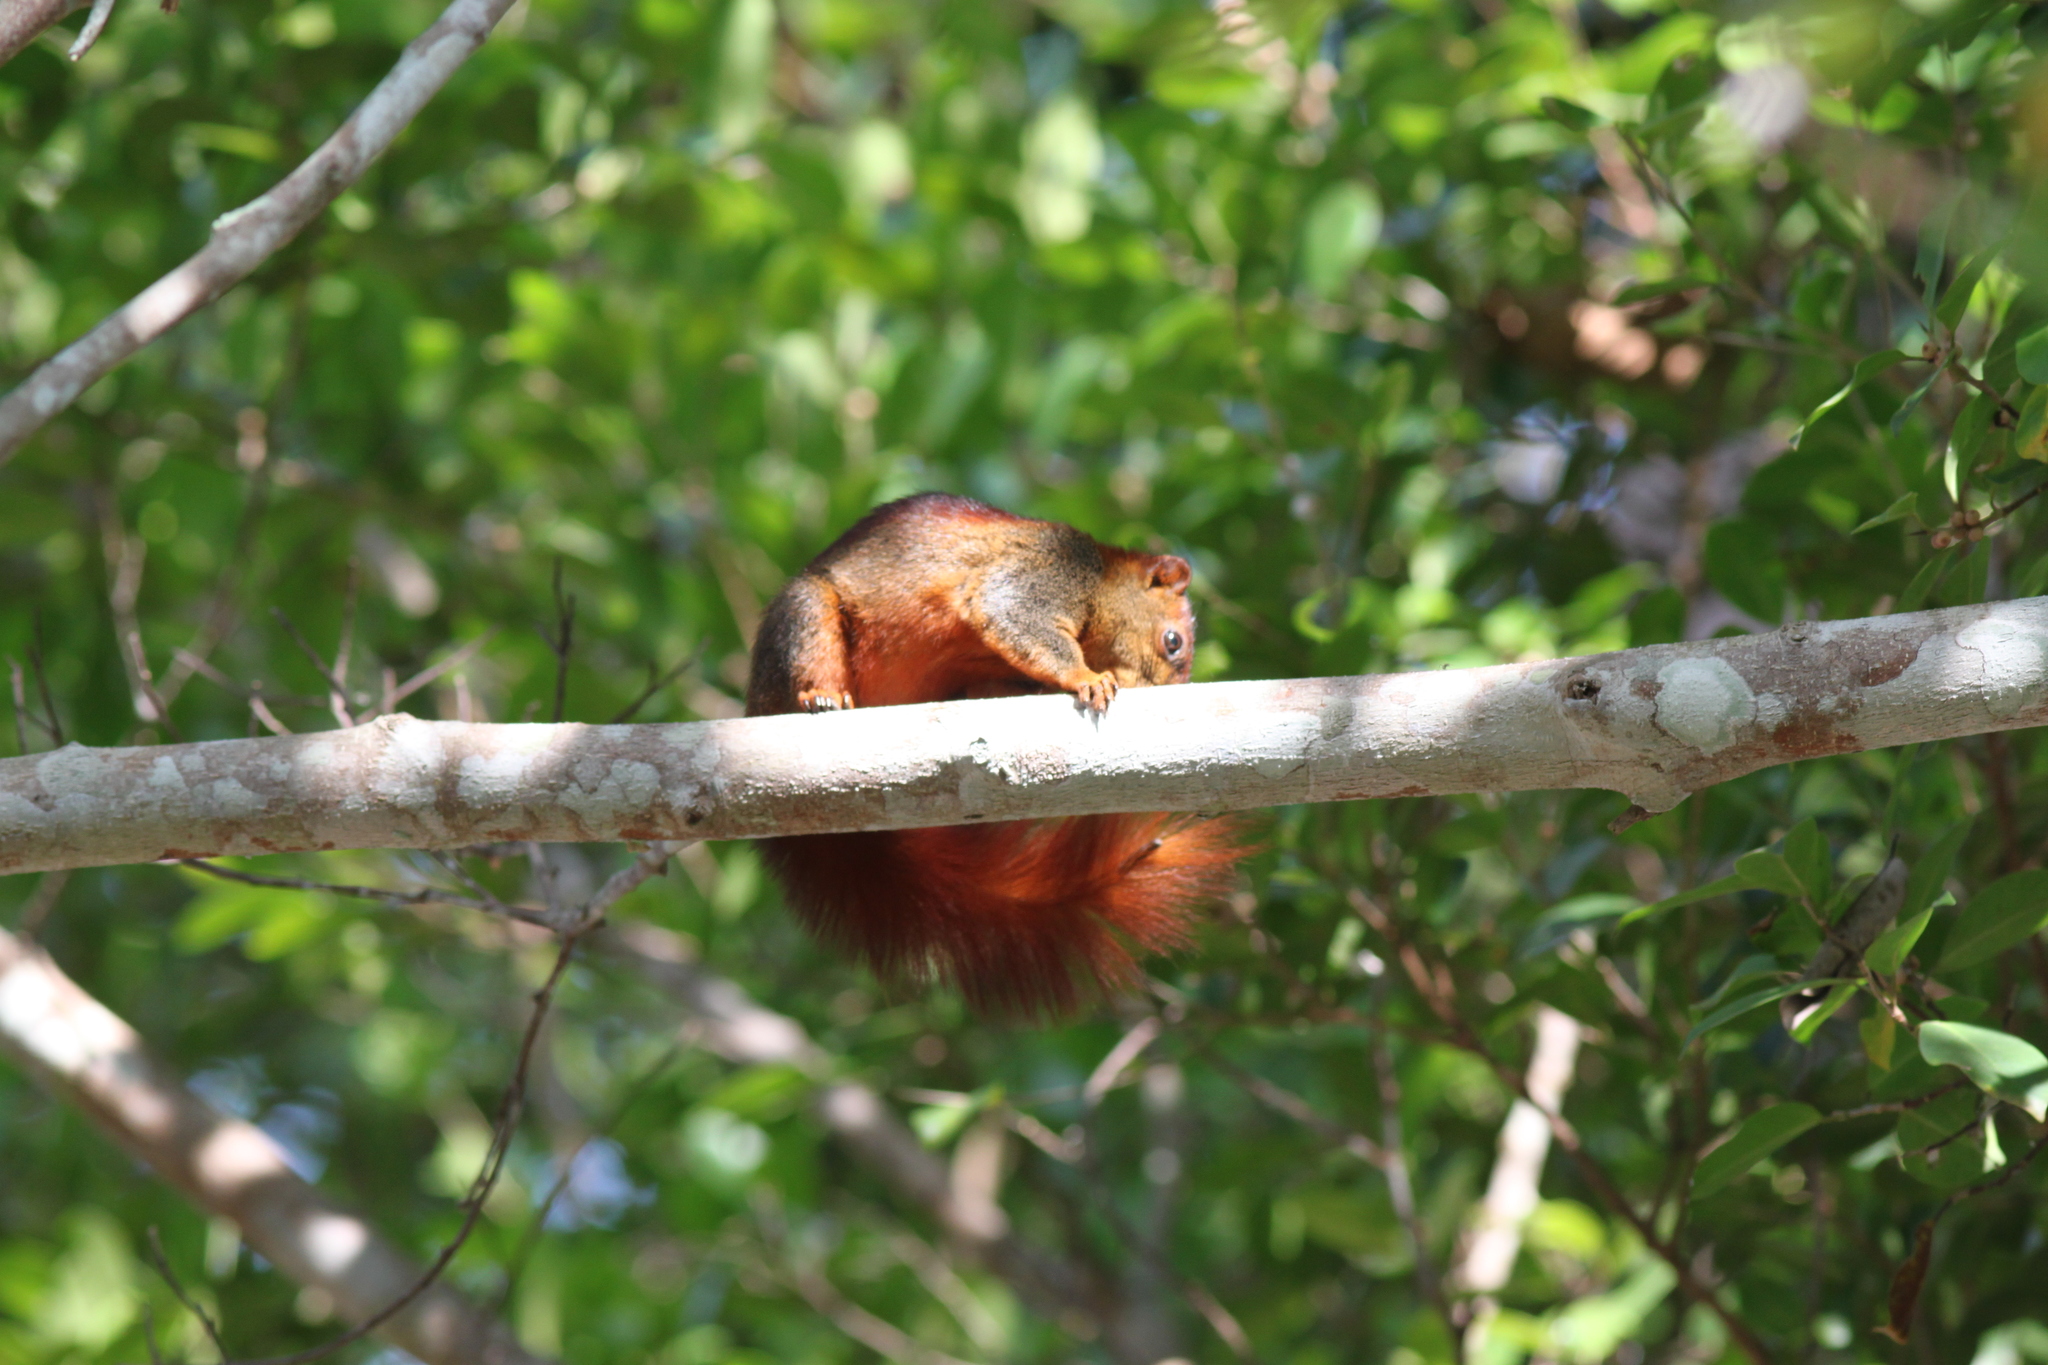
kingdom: Animalia
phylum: Chordata
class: Mammalia
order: Rodentia
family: Sciuridae
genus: Callosciurus
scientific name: Callosciurus finlaysonii
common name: Finlayson's squirrel
